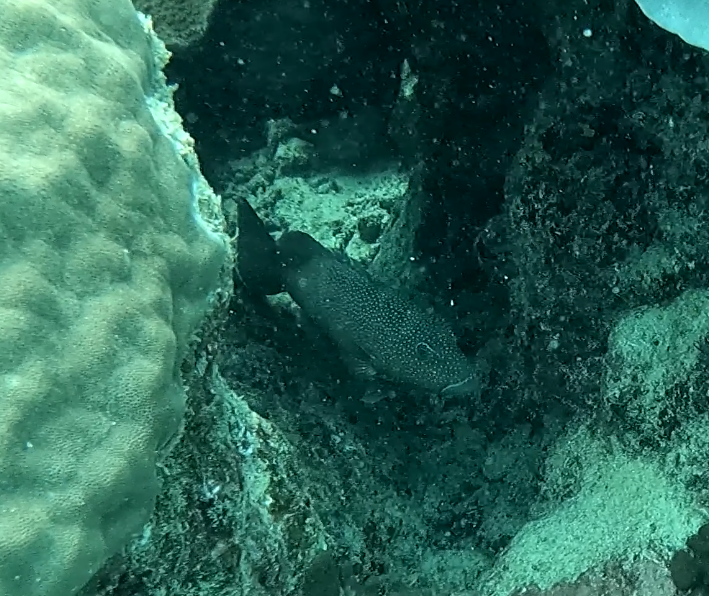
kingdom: Animalia
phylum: Chordata
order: Perciformes
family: Serranidae
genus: Plectropomus
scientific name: Plectropomus leopardus
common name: Coral trout
